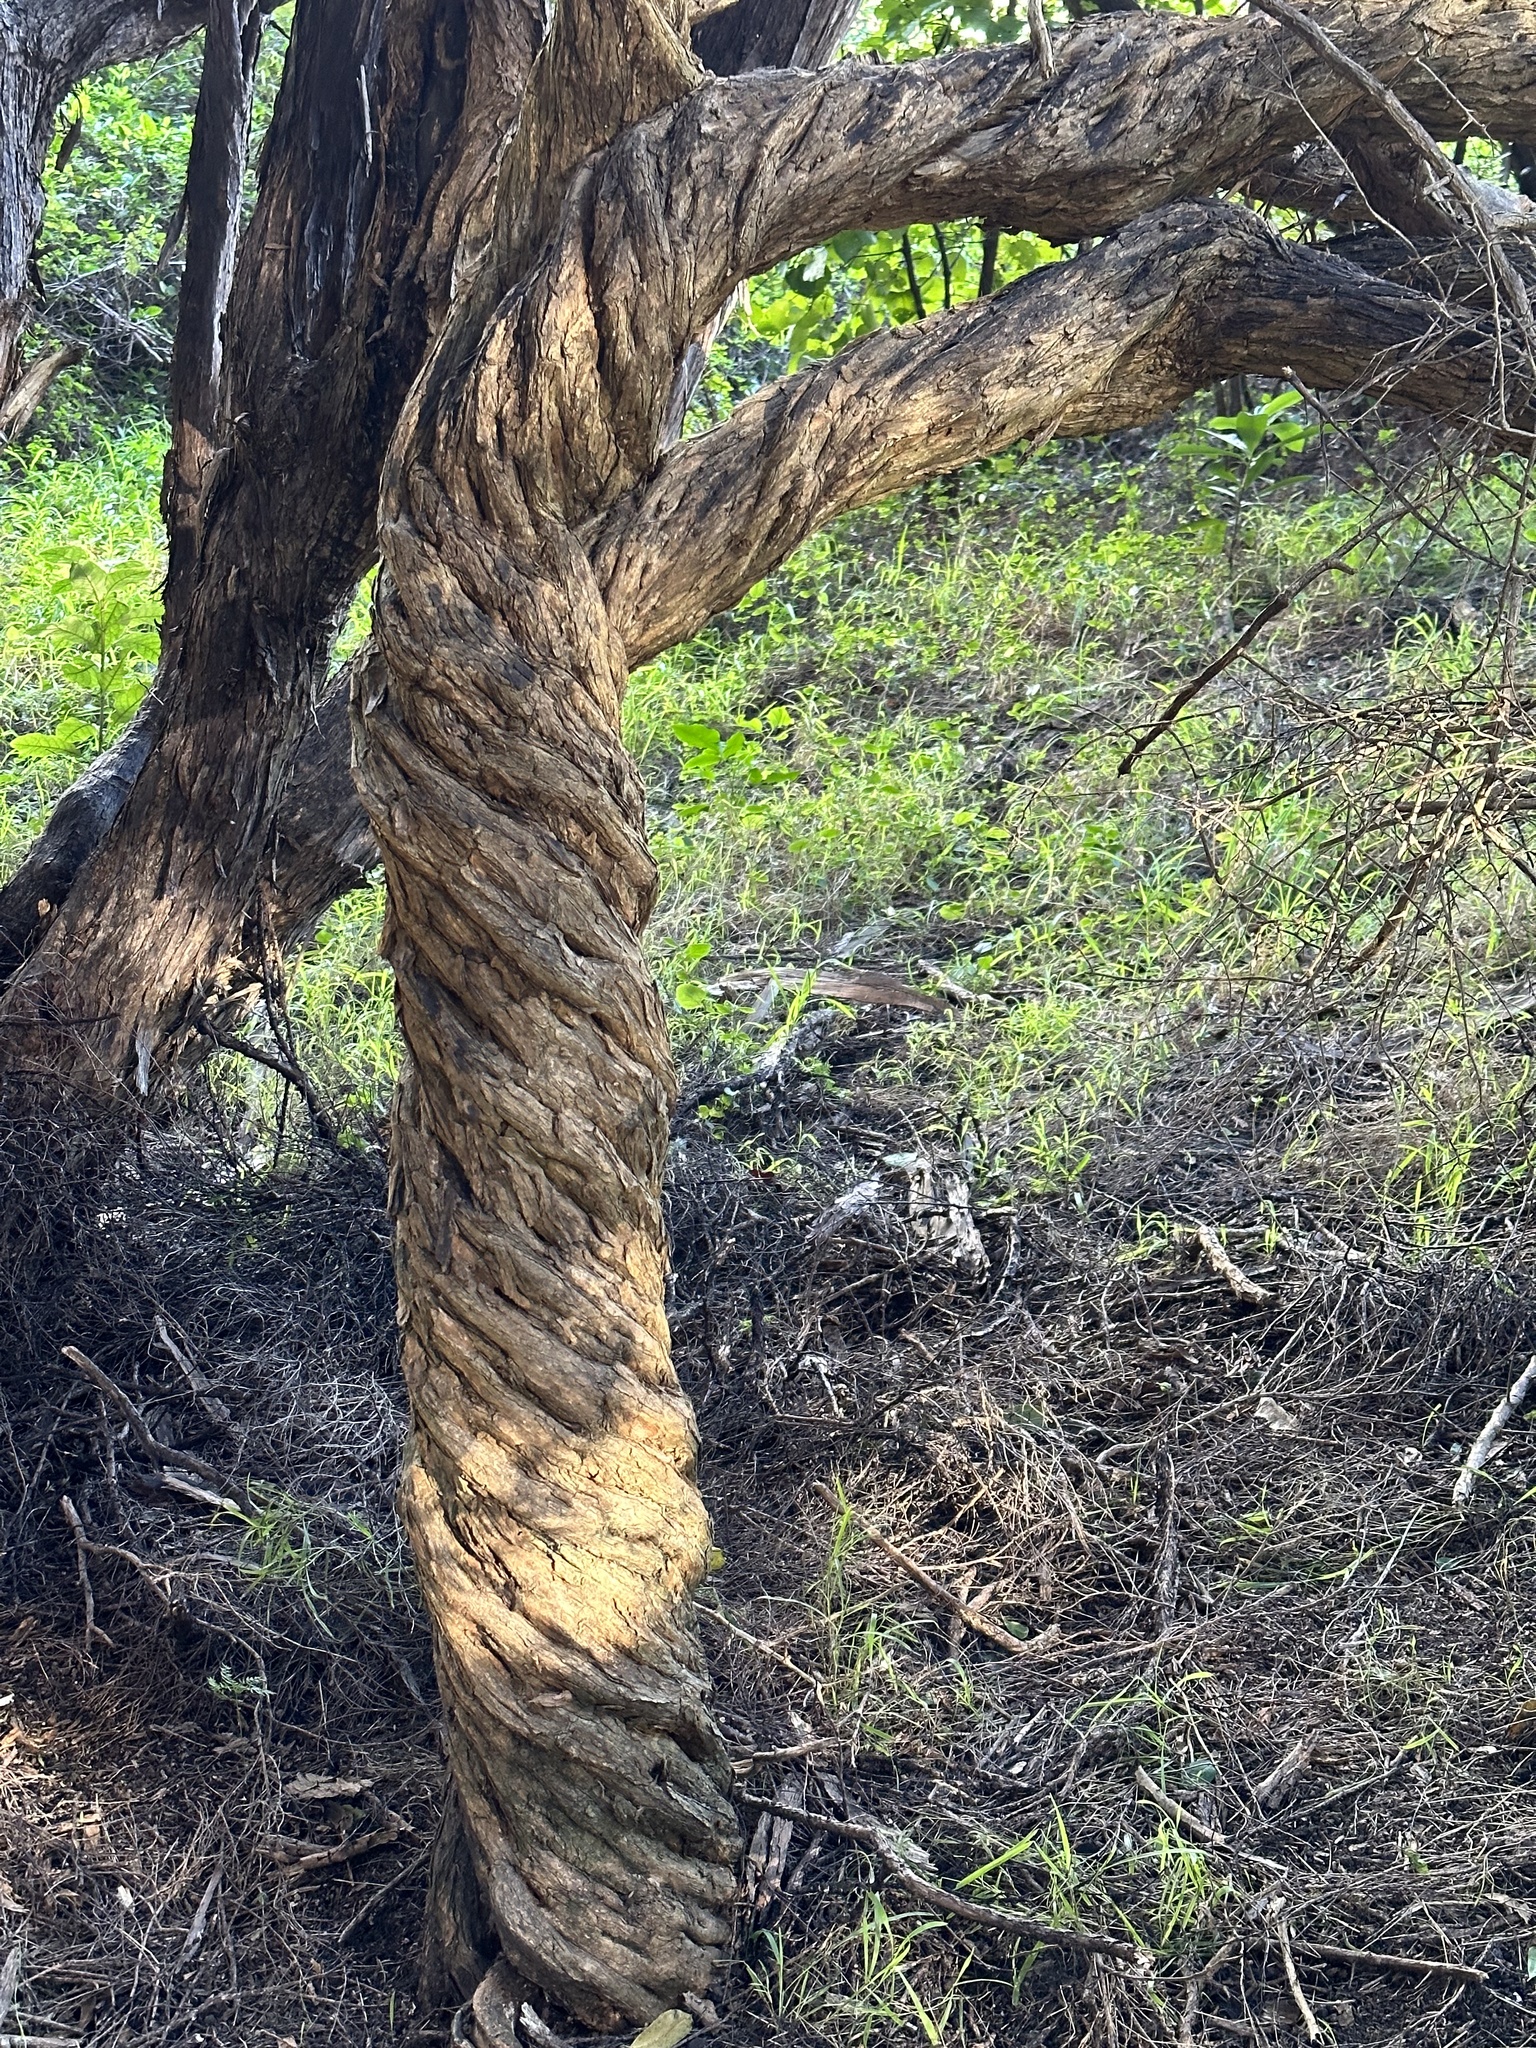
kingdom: Plantae
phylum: Tracheophyta
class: Magnoliopsida
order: Solanales
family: Solanaceae
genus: Lycium
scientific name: Lycium ferocissimum
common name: African boxthorn
